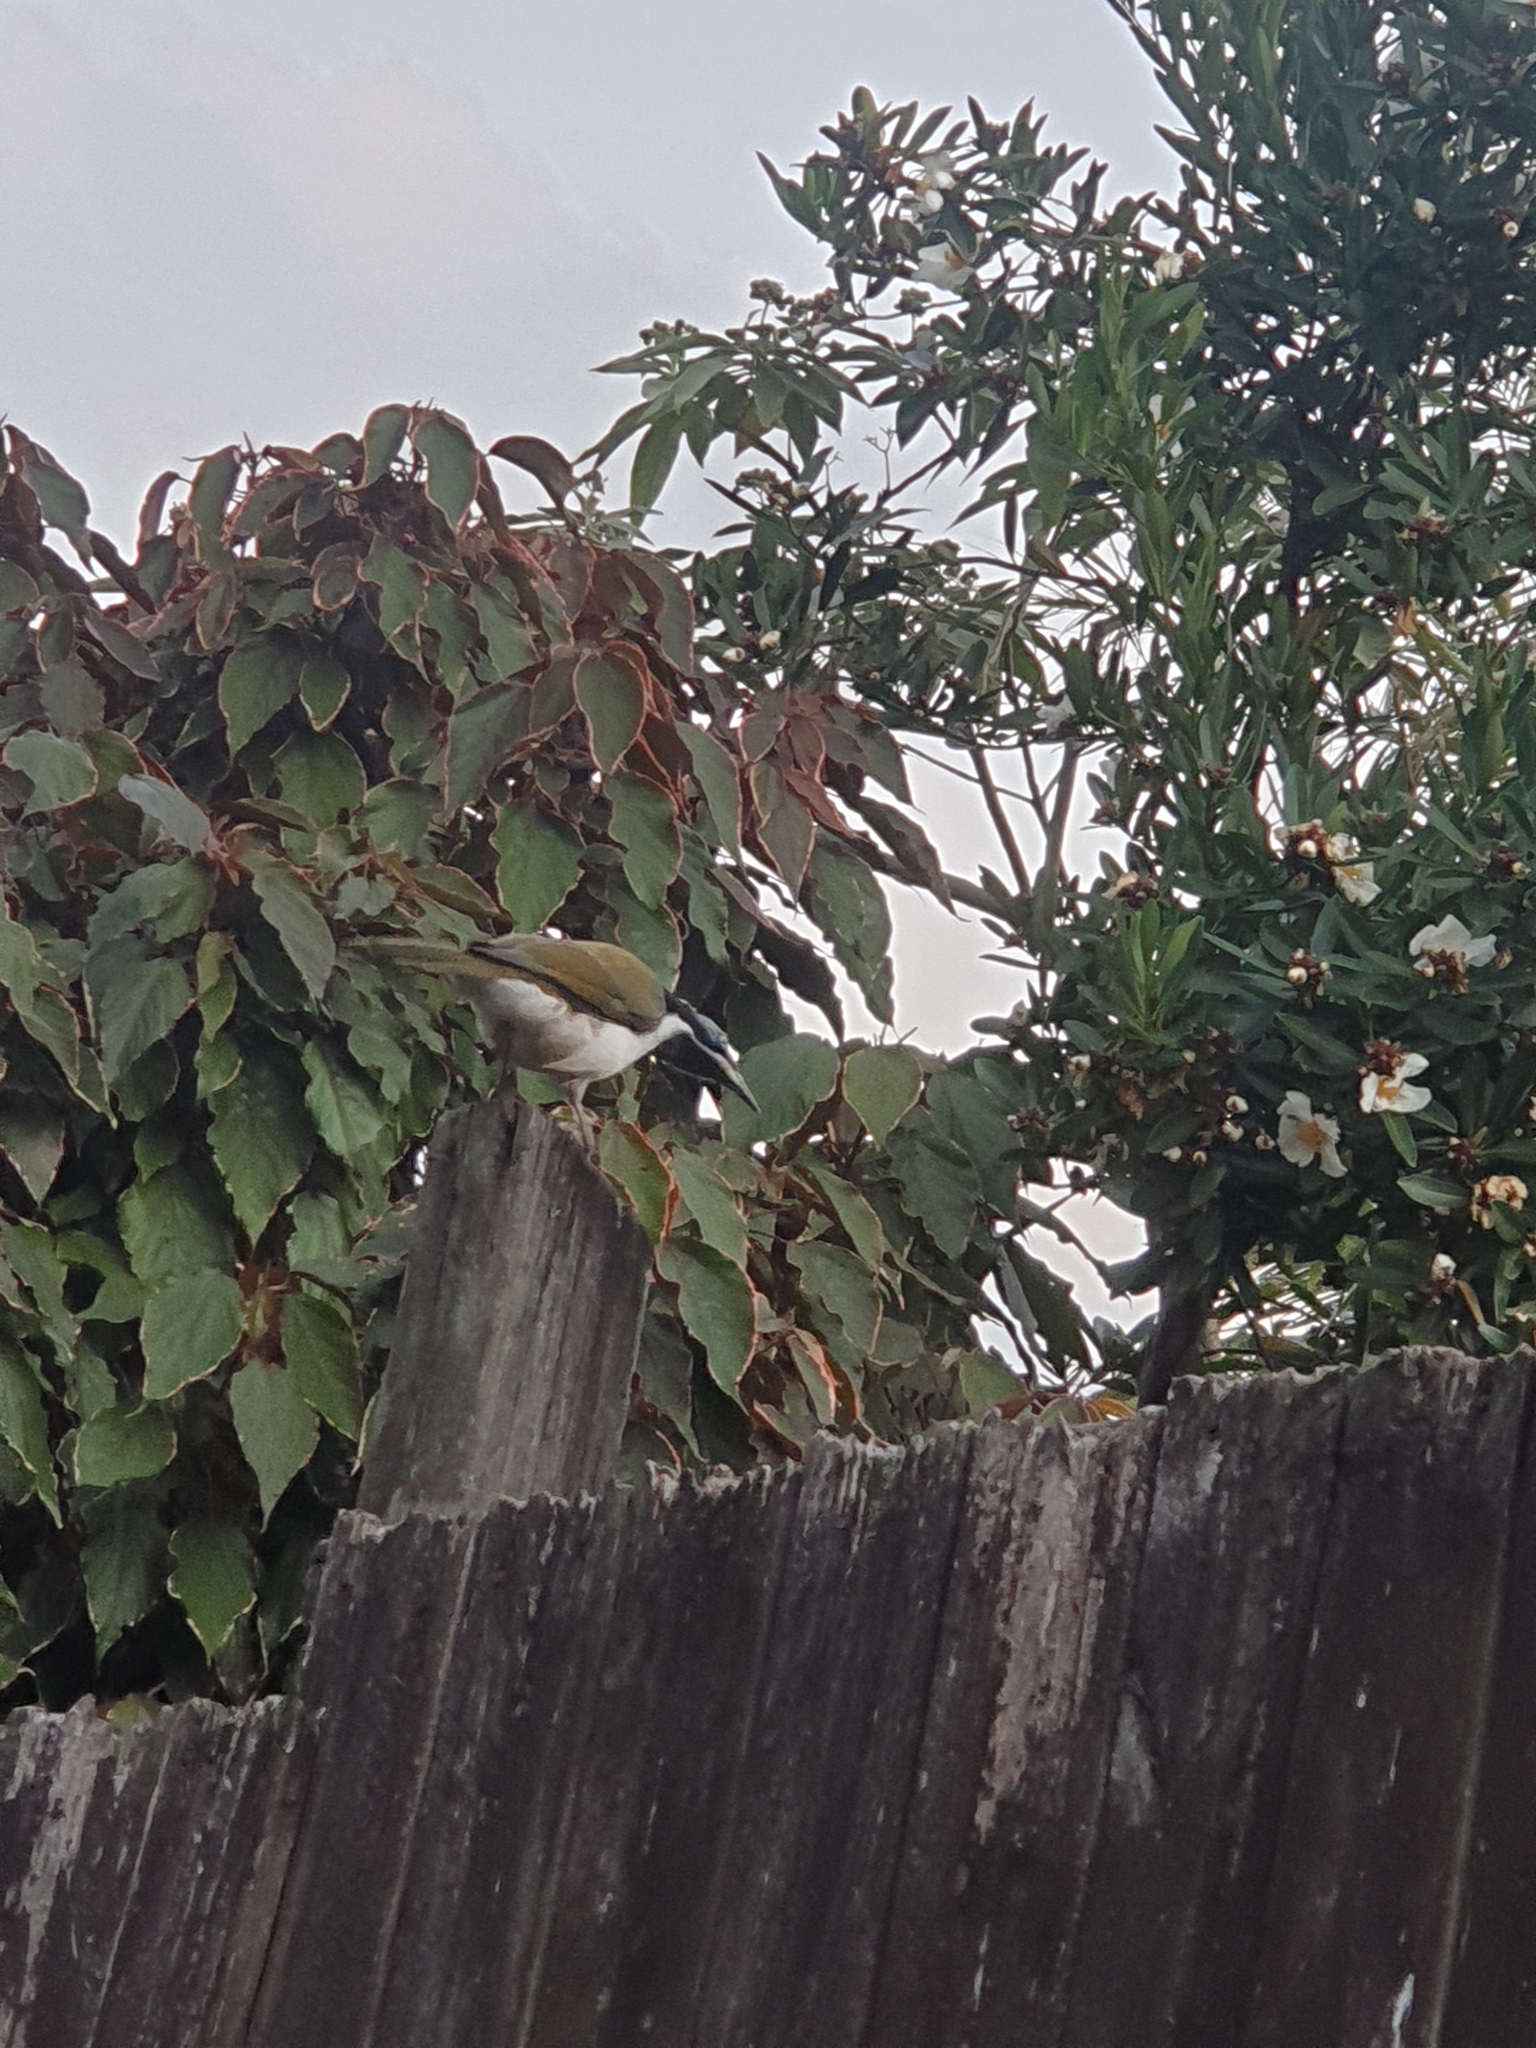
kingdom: Animalia
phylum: Chordata
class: Aves
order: Passeriformes
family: Meliphagidae
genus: Entomyzon
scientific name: Entomyzon cyanotis
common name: Blue-faced honeyeater
